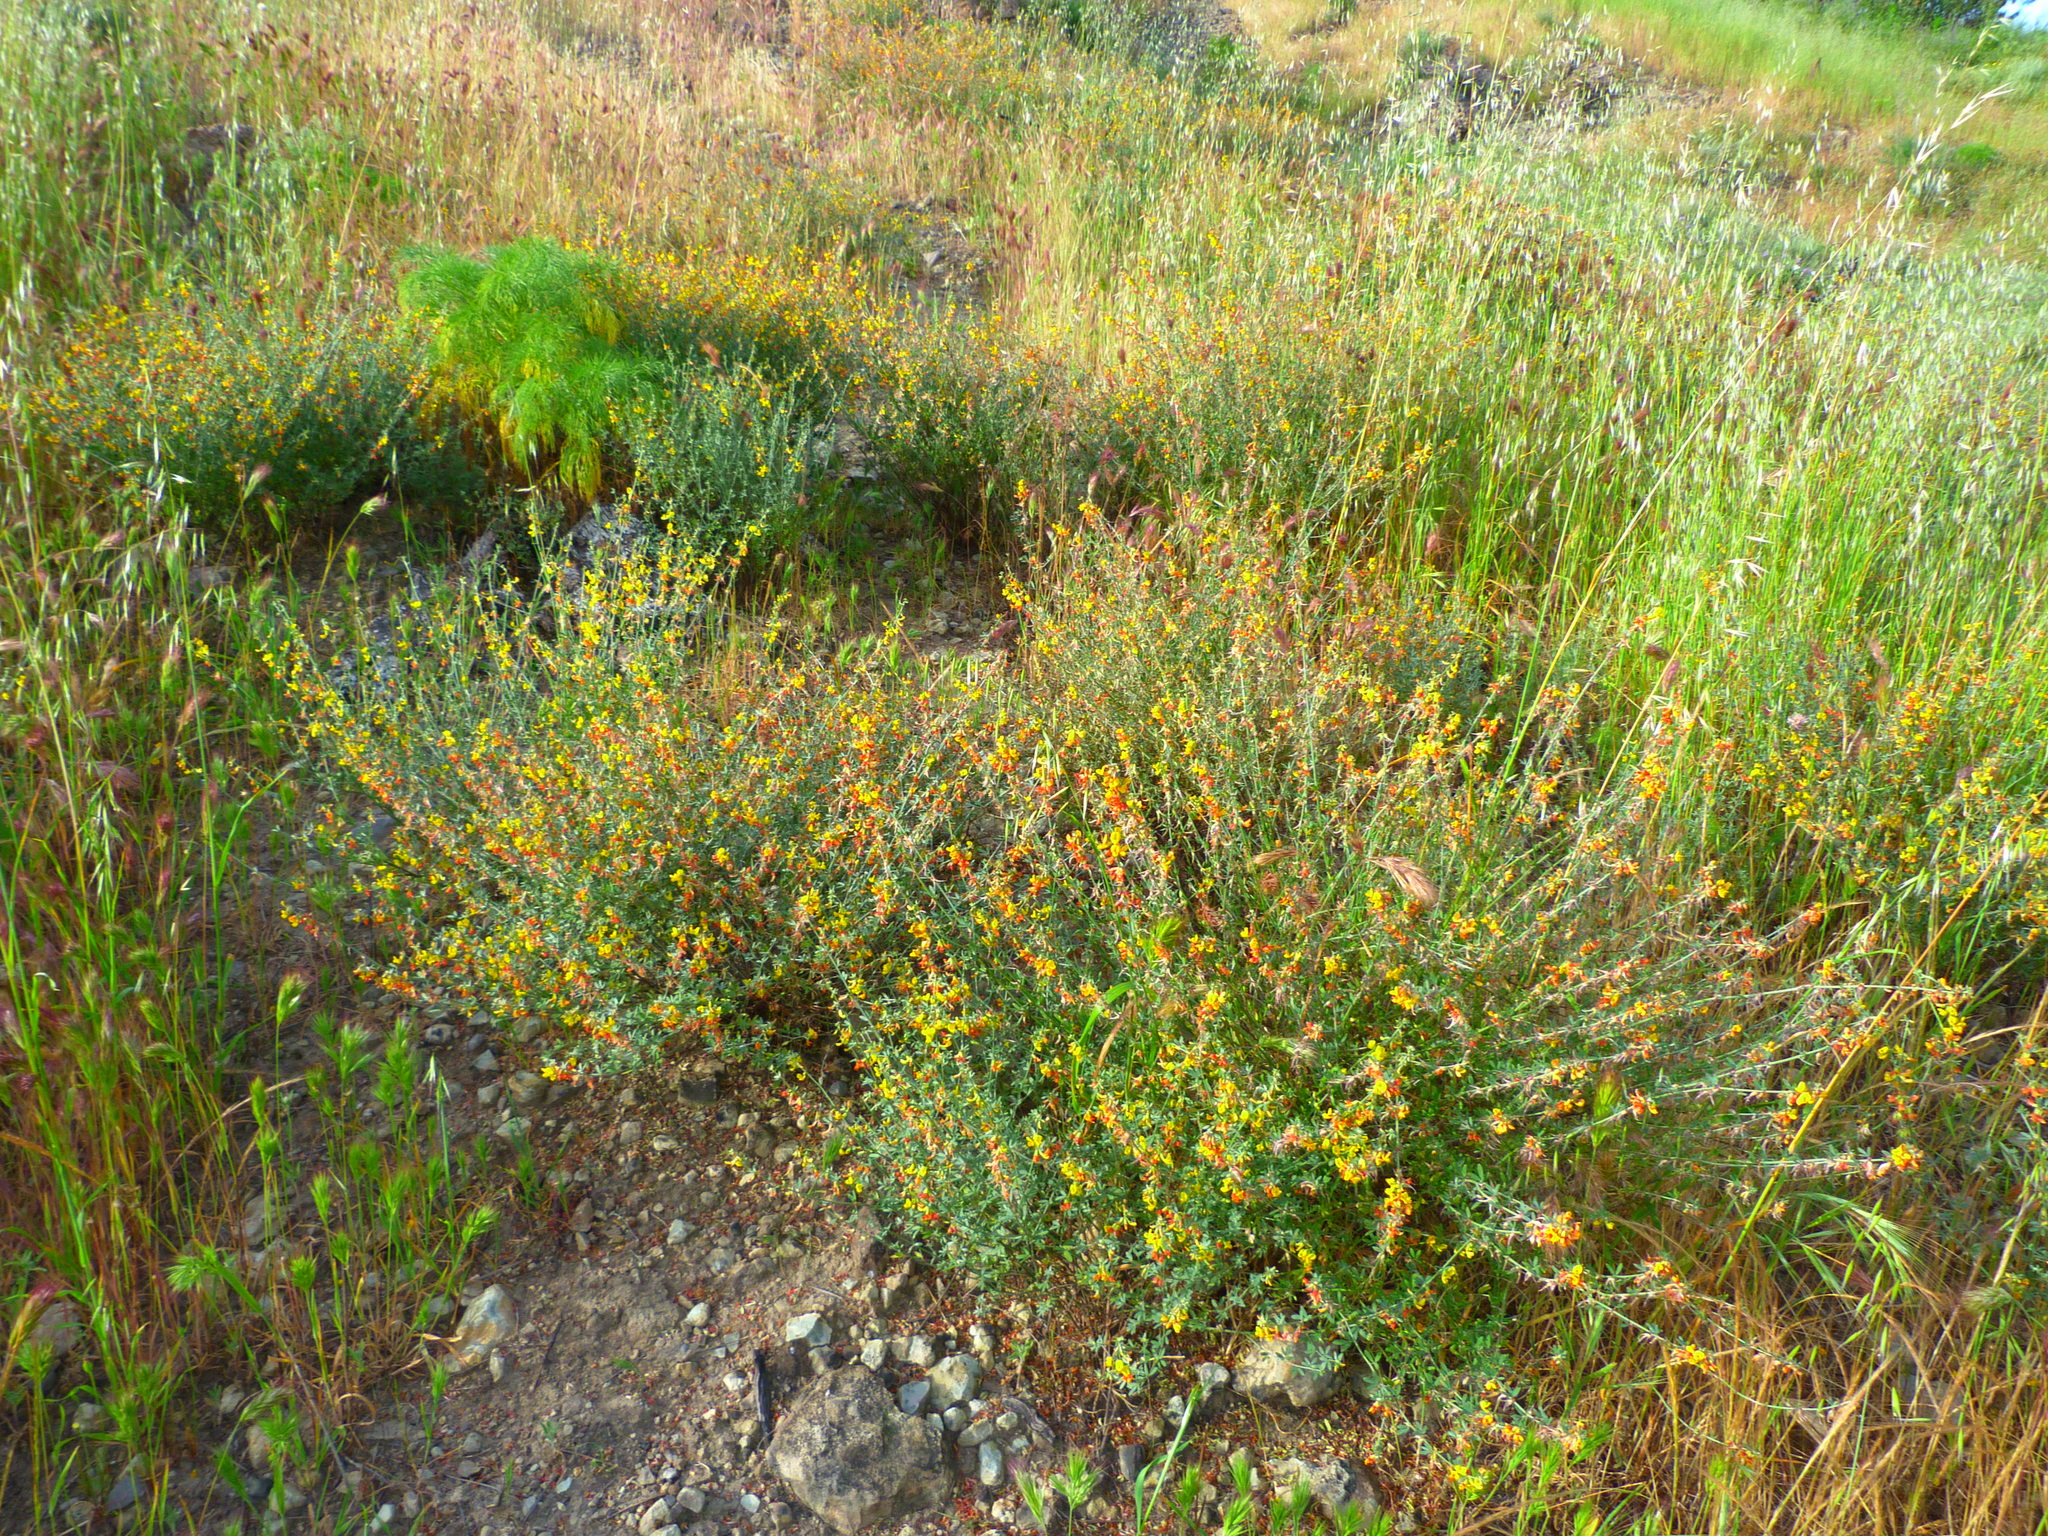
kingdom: Plantae
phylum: Tracheophyta
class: Magnoliopsida
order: Fabales
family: Fabaceae
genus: Acmispon
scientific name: Acmispon glaber
